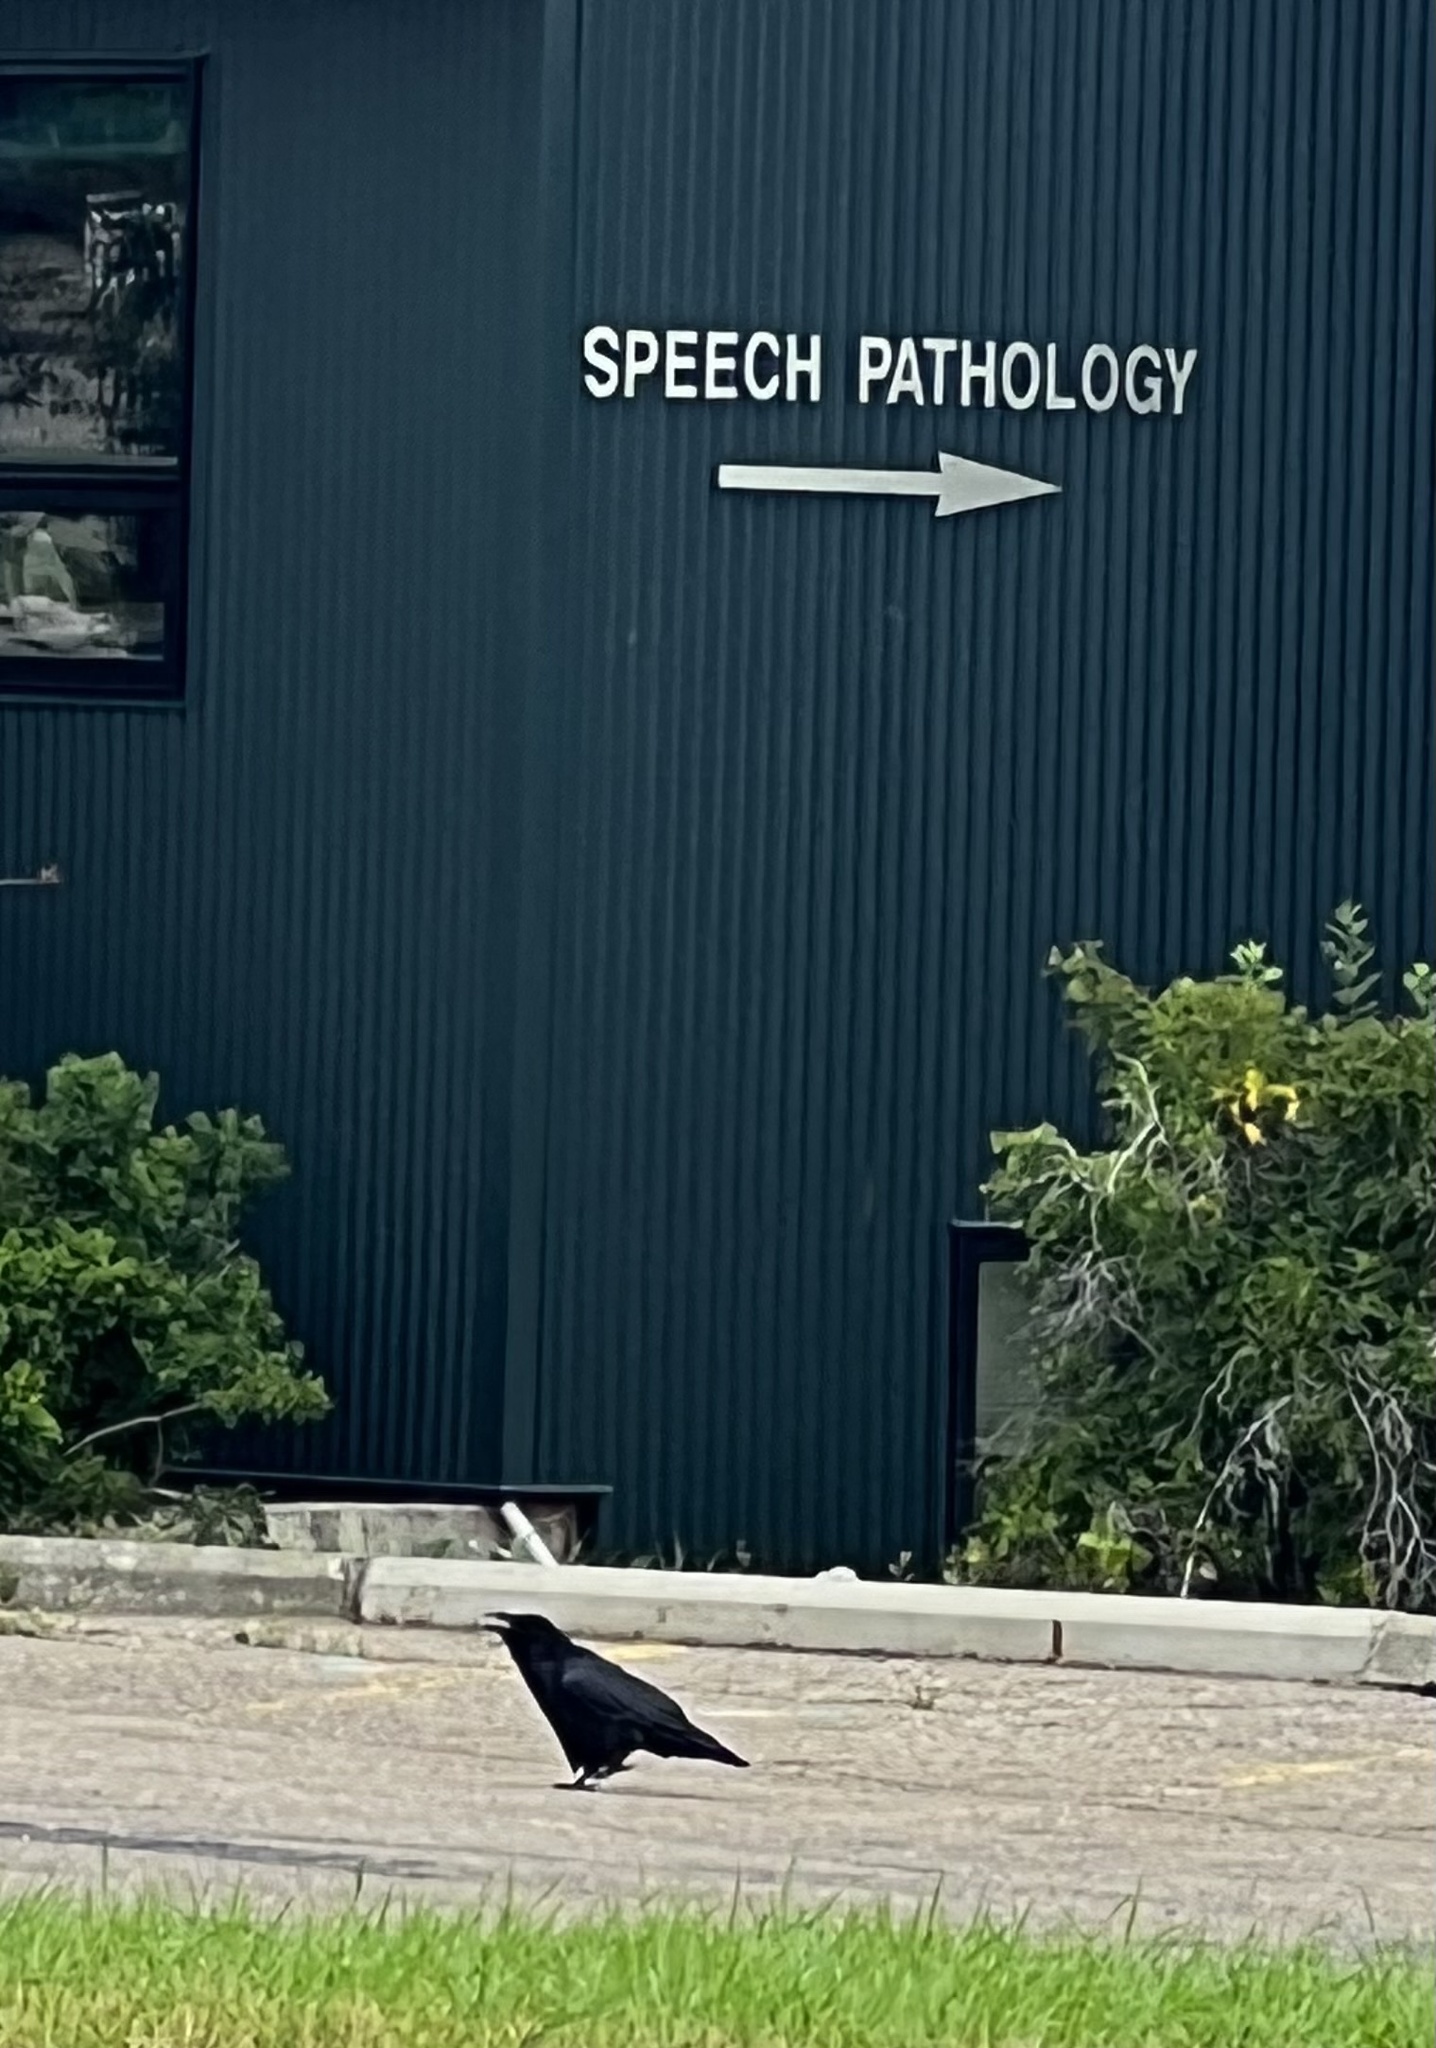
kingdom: Animalia
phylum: Chordata
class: Aves
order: Passeriformes
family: Corvidae
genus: Corvus
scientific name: Corvus corax
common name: Common raven
